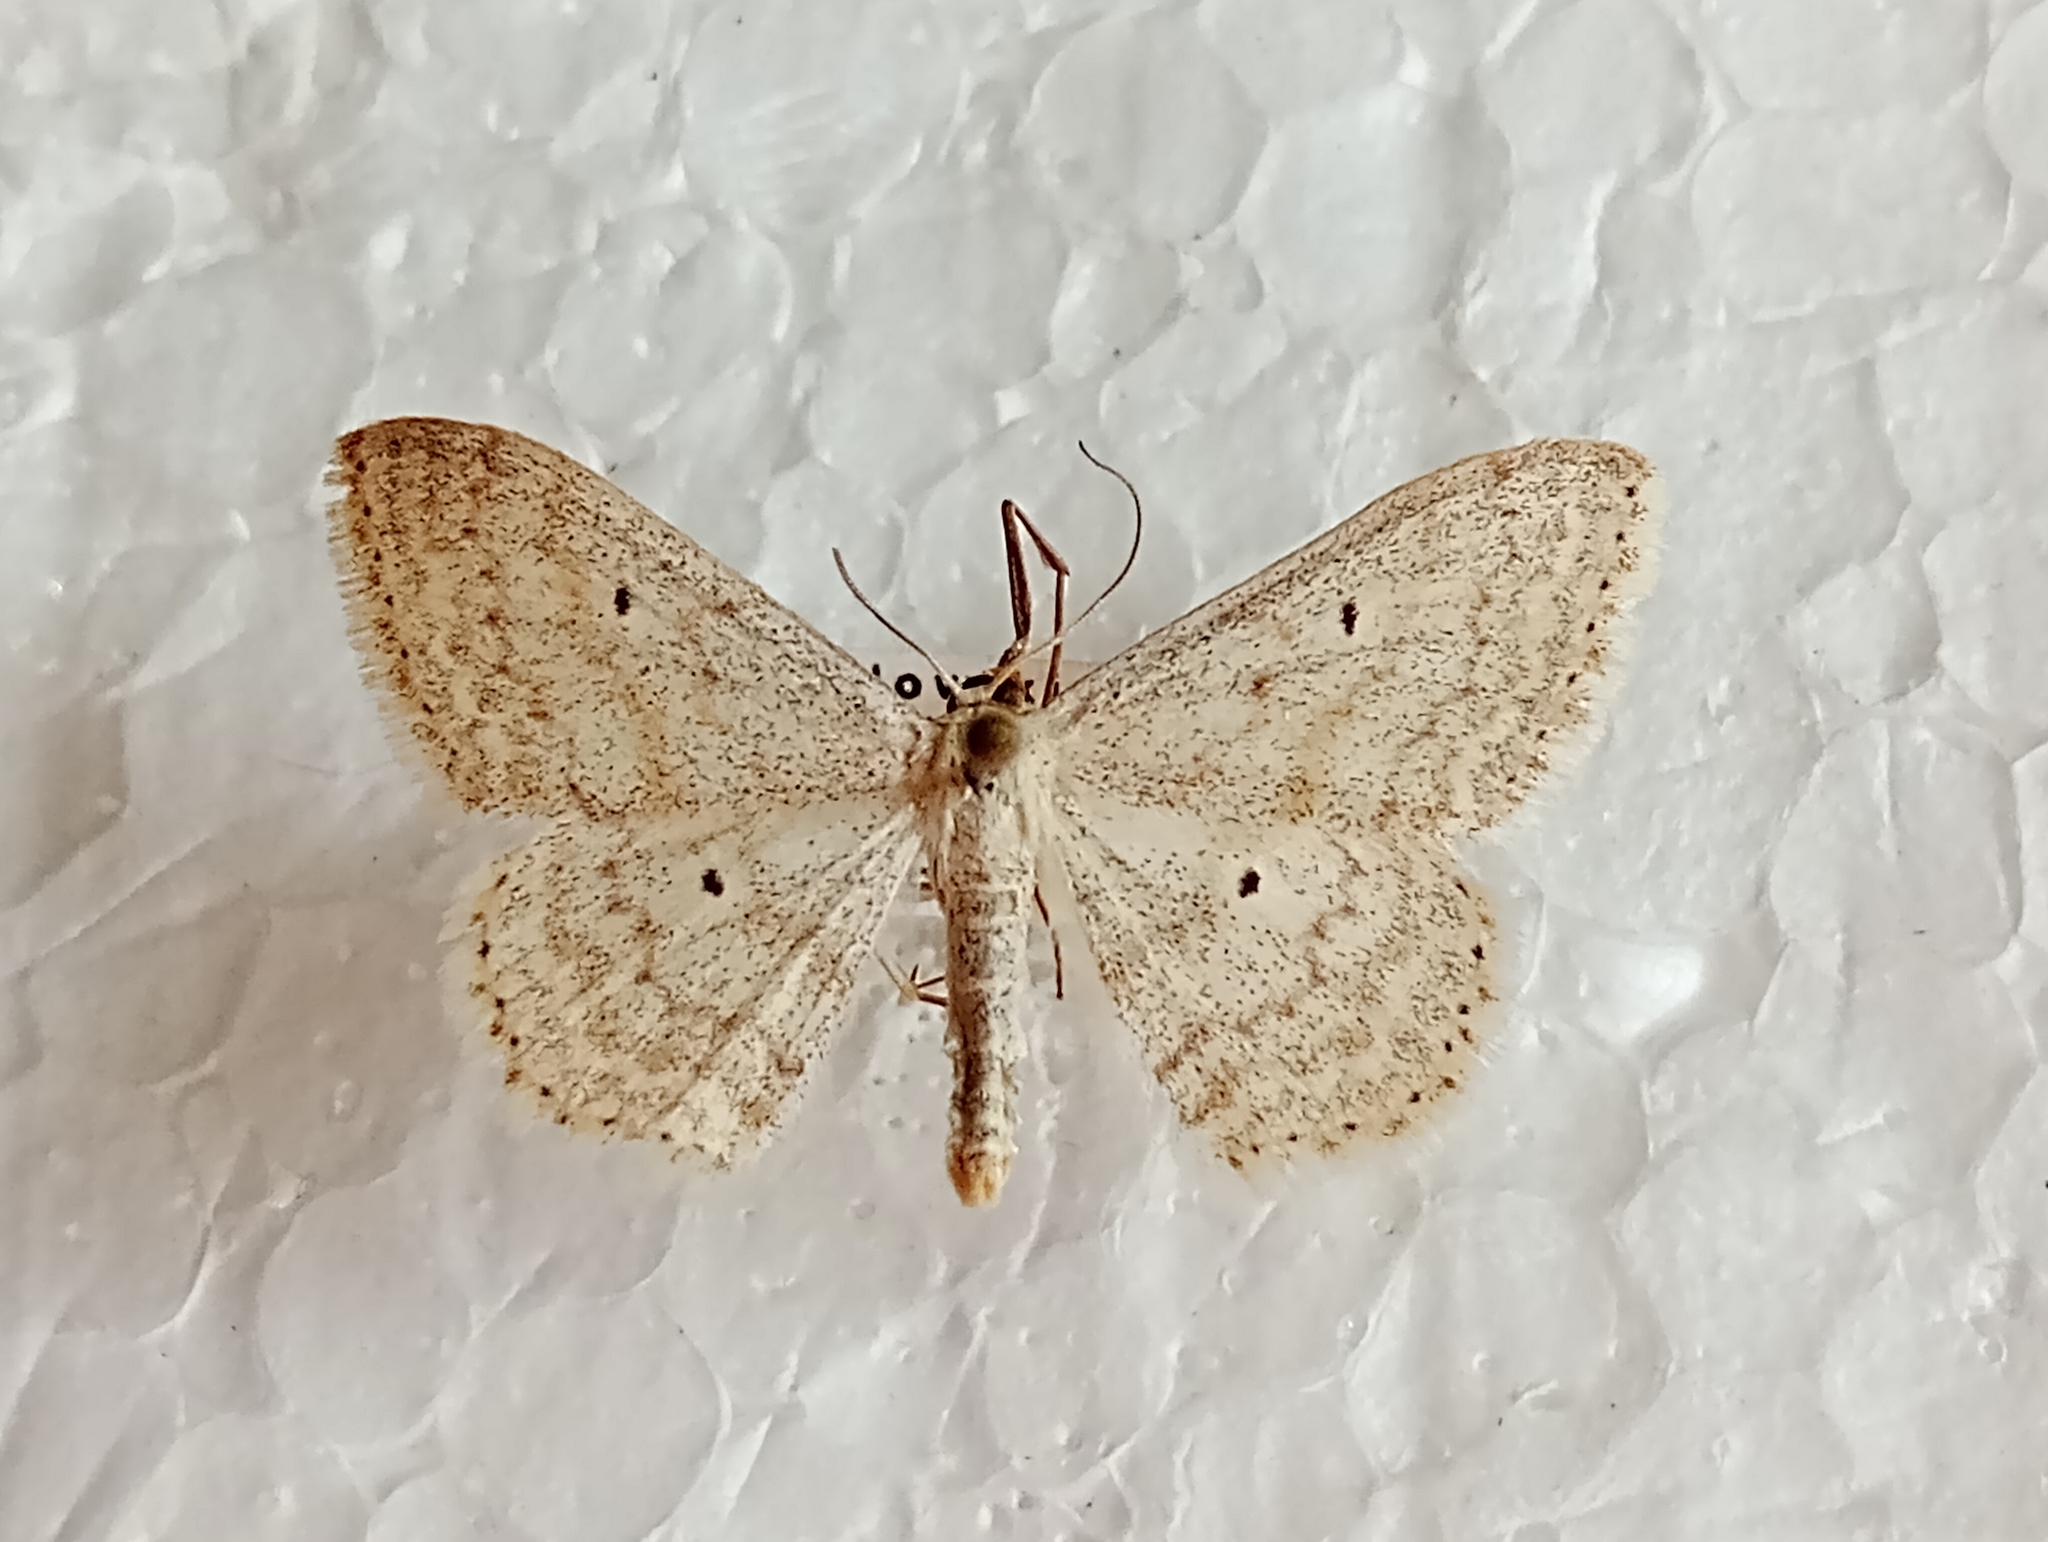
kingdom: Animalia
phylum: Arthropoda
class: Insecta
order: Lepidoptera
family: Geometridae
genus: Scopula
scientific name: Scopula incanata
